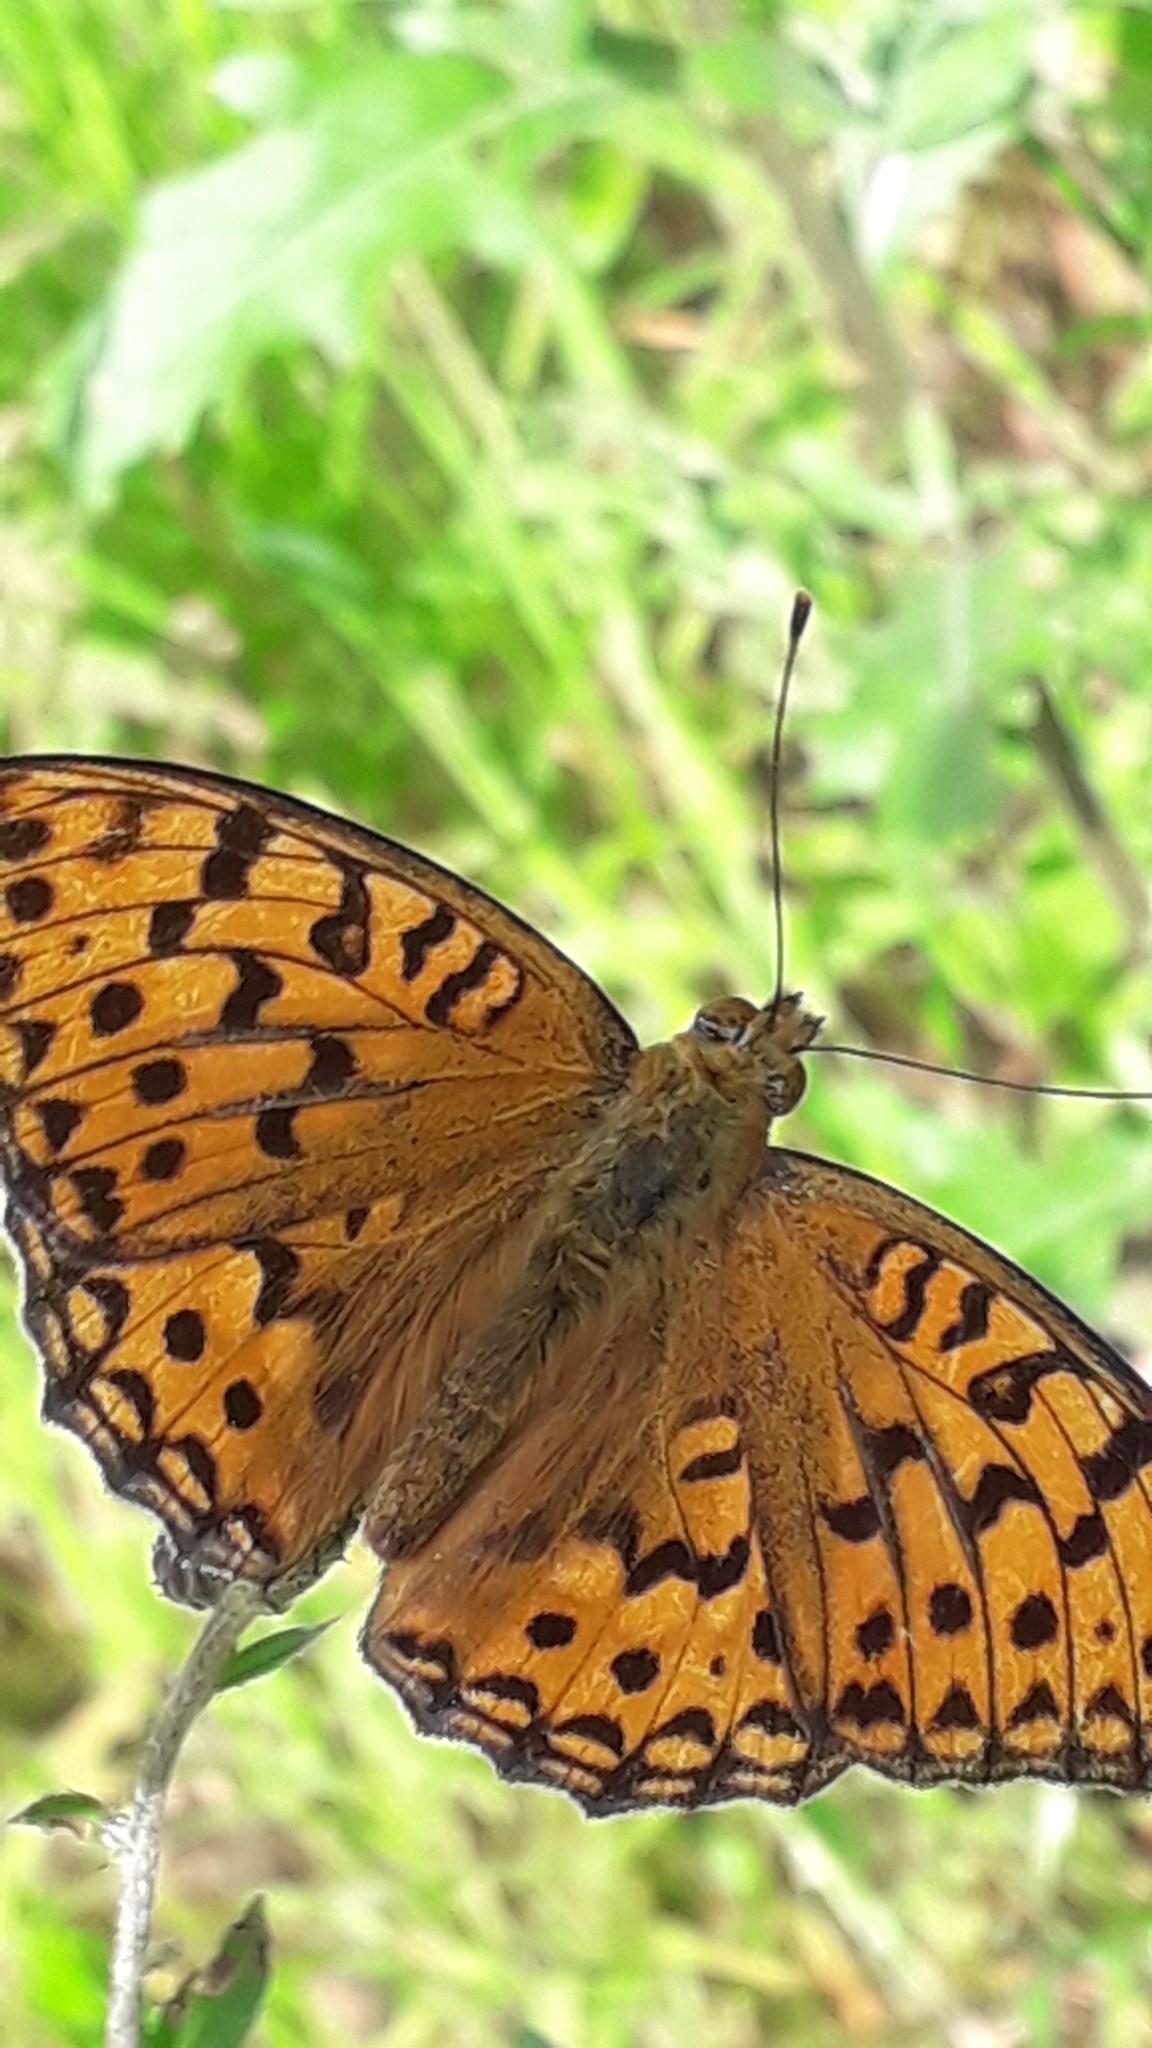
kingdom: Animalia
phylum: Arthropoda
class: Insecta
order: Lepidoptera
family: Nymphalidae
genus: Fabriciana
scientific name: Fabriciana adippe
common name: High brown fritillary
